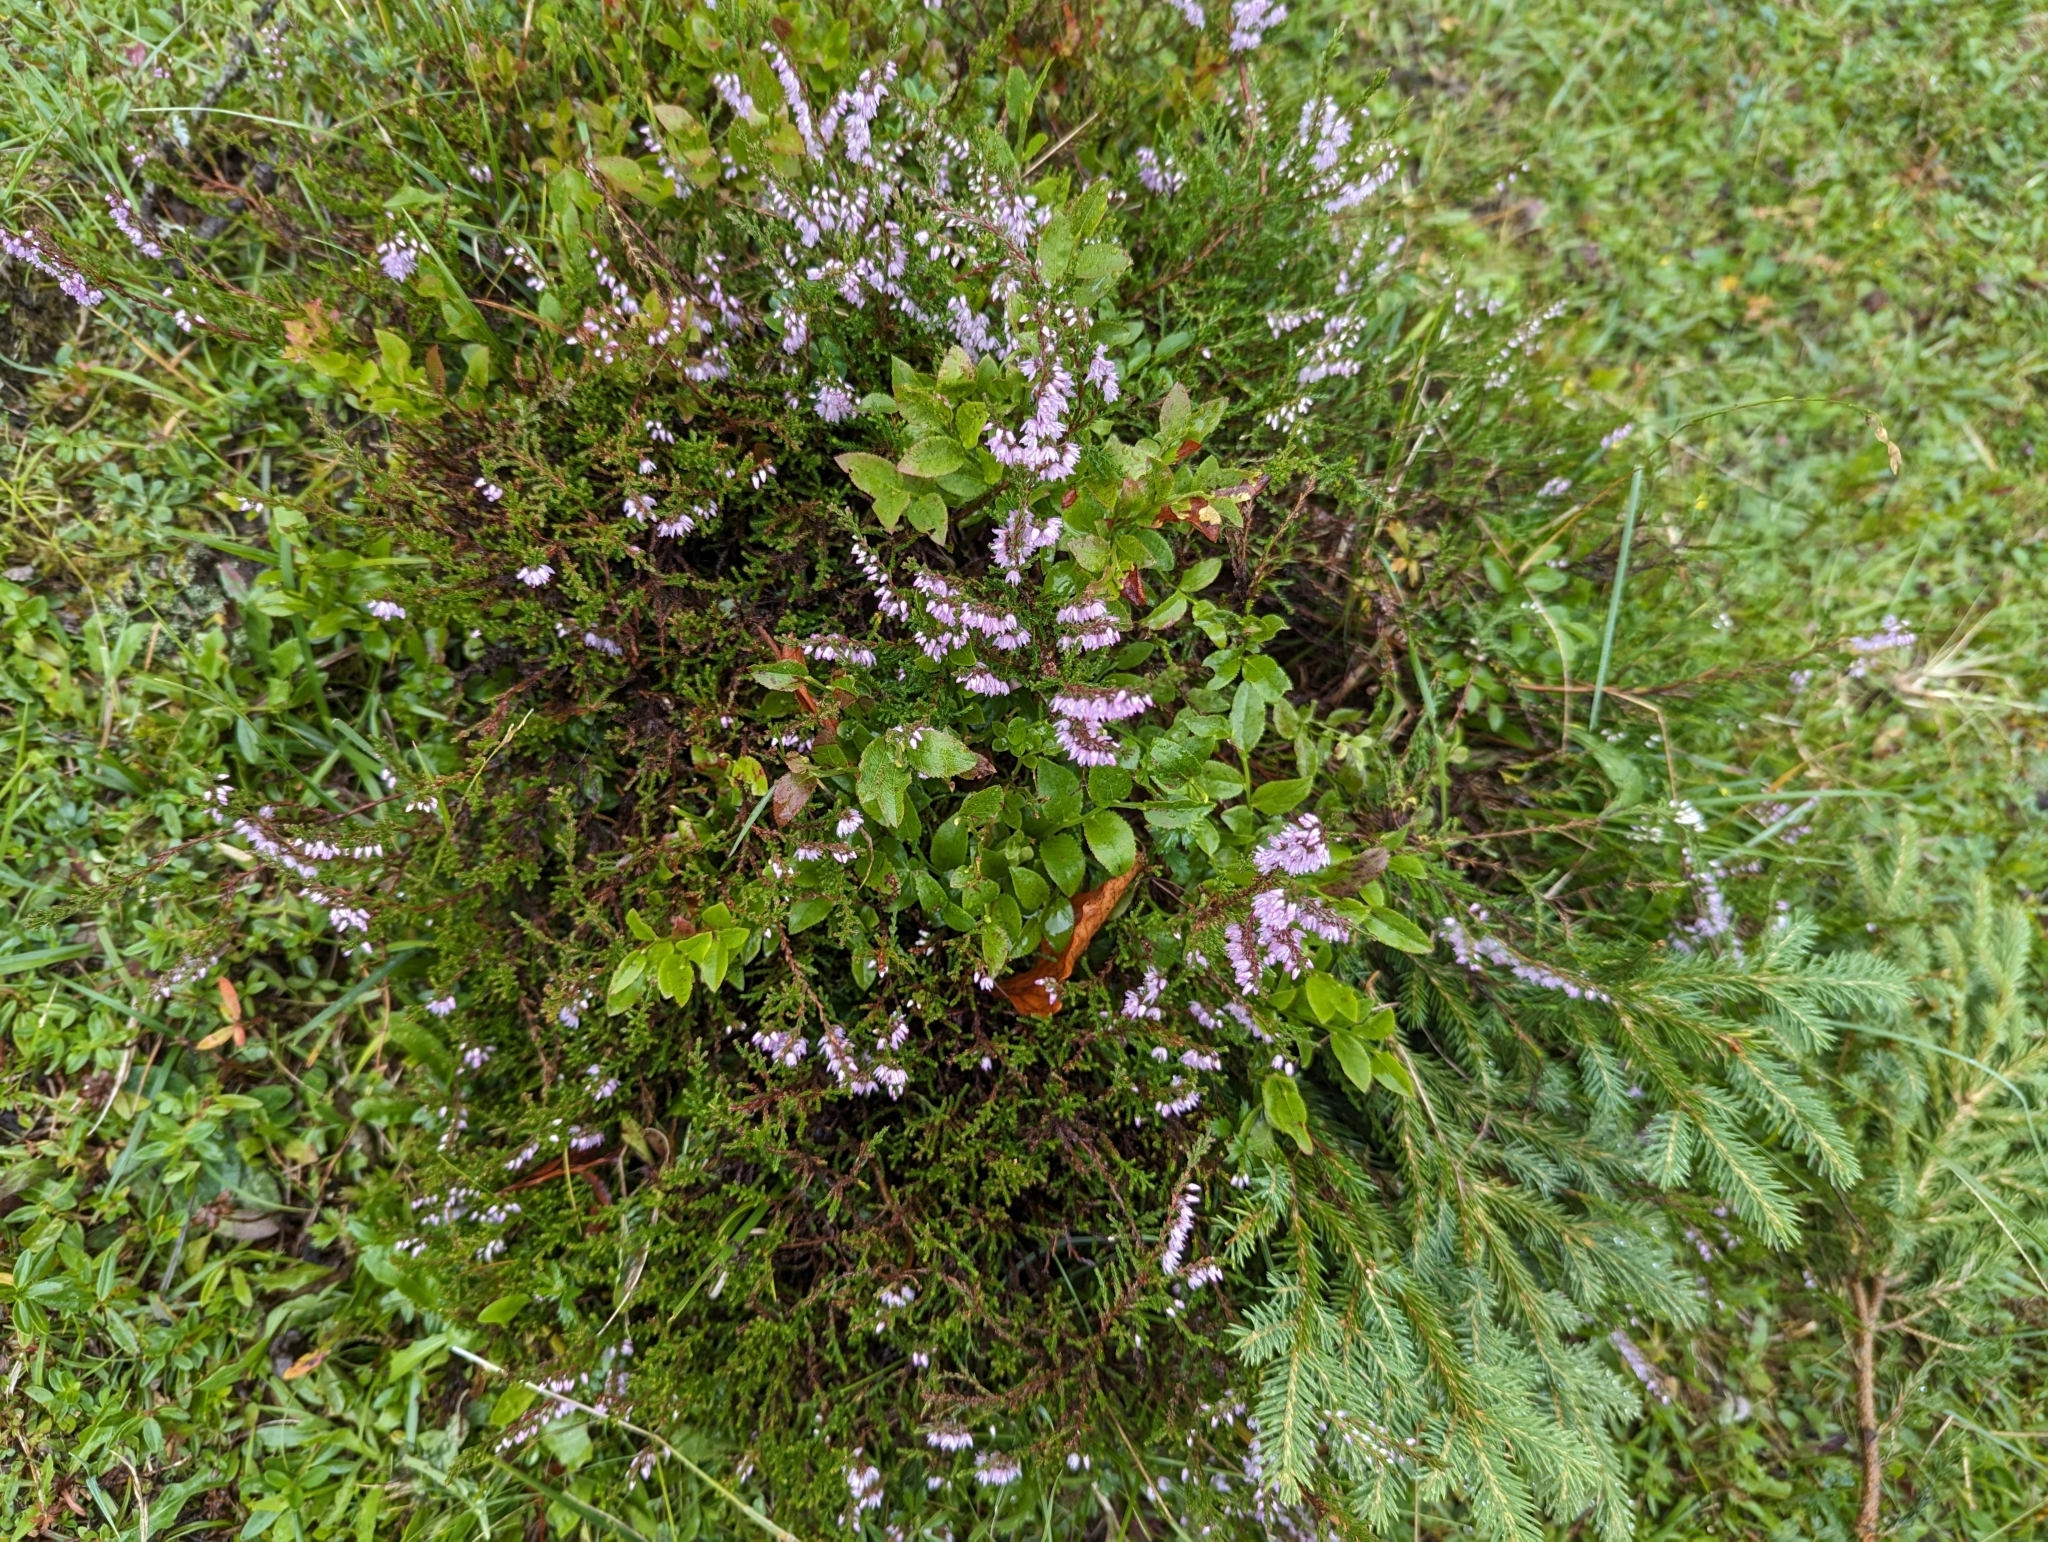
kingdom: Plantae
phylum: Tracheophyta
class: Magnoliopsida
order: Ericales
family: Ericaceae
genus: Calluna
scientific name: Calluna vulgaris
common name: Heather
